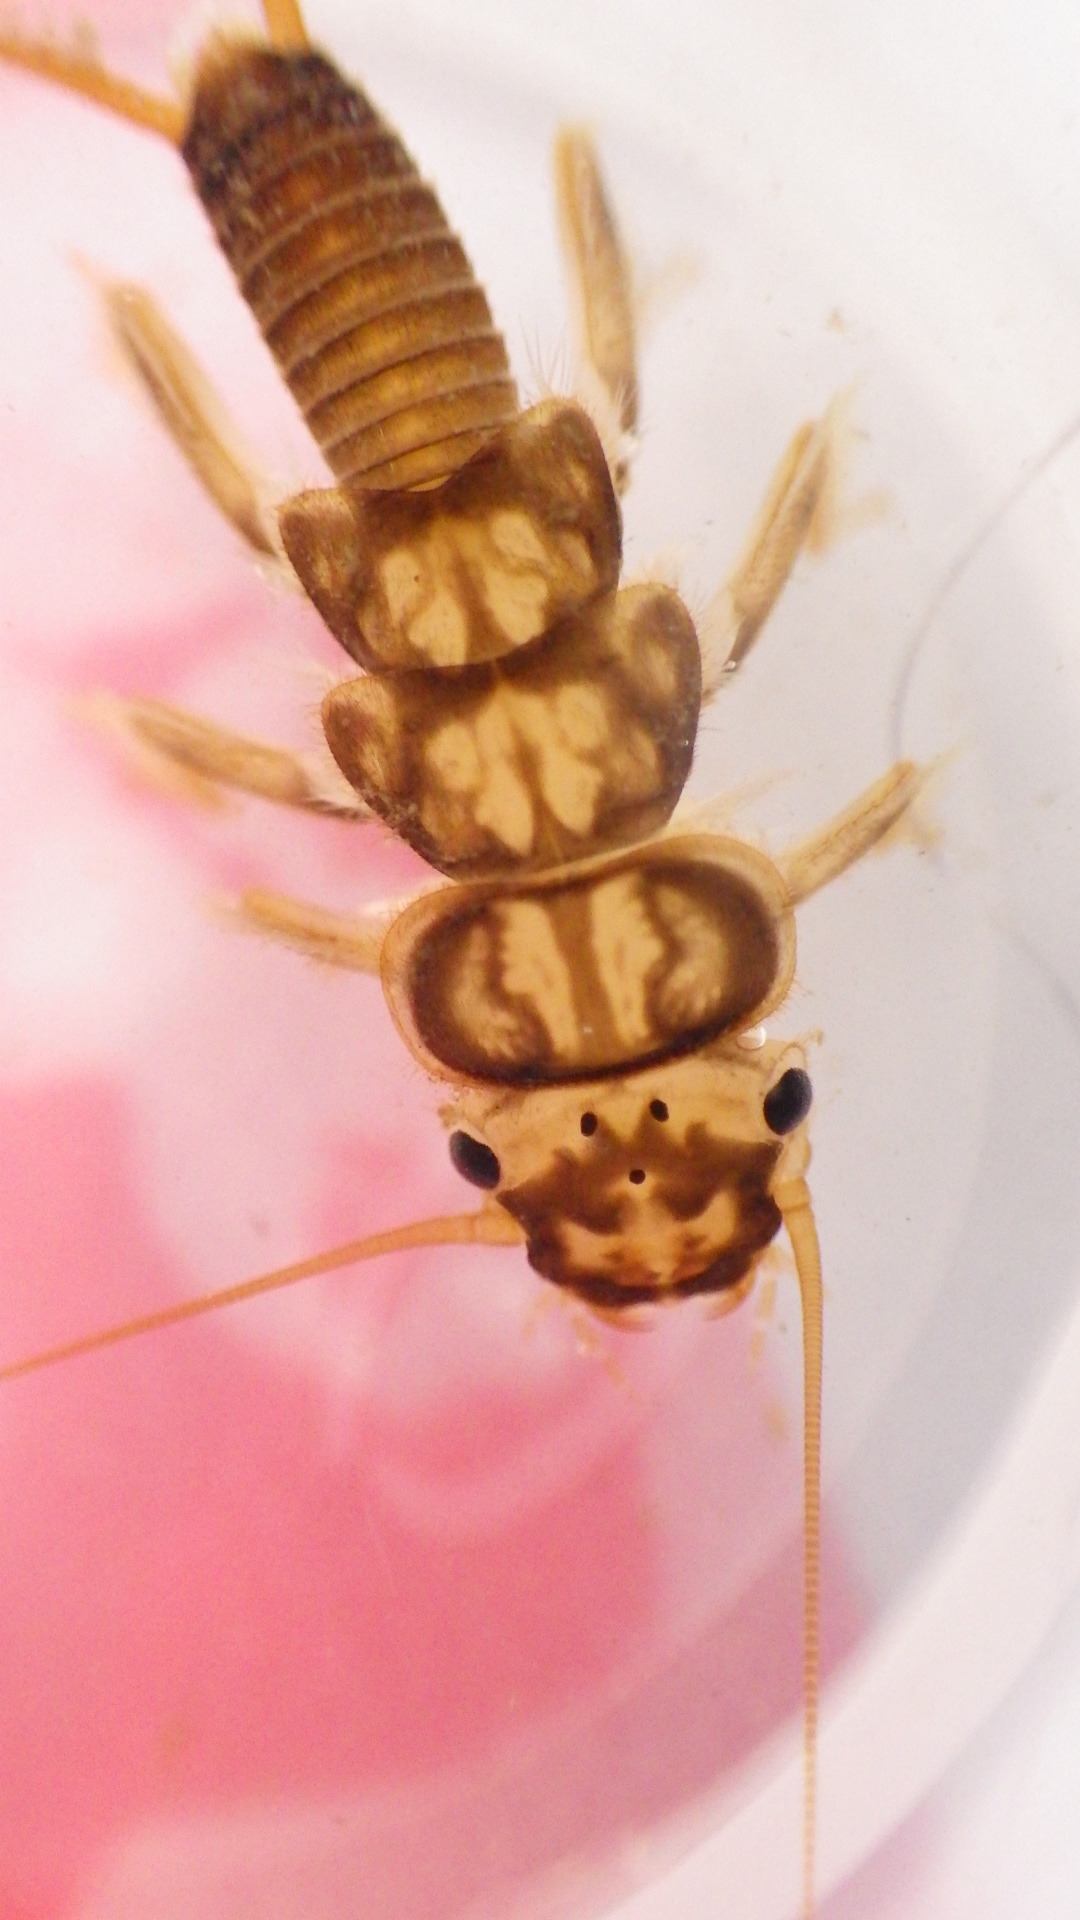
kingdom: Animalia
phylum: Arthropoda
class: Insecta
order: Plecoptera
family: Perlidae
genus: Eccoptura
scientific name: Eccoptura xanthenes
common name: Yellow stone
